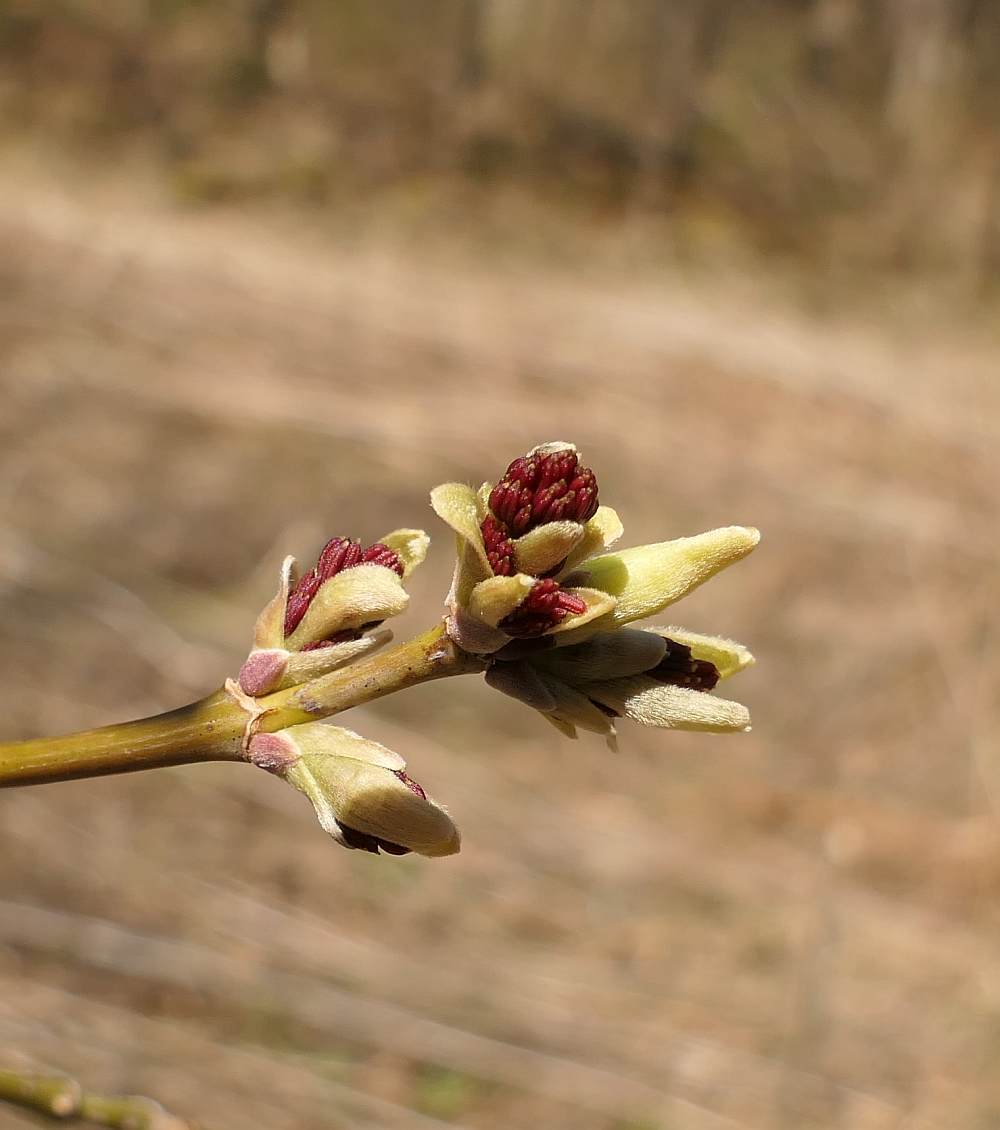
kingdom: Plantae
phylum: Tracheophyta
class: Magnoliopsida
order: Sapindales
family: Sapindaceae
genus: Acer
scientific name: Acer negundo
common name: Ashleaf maple
